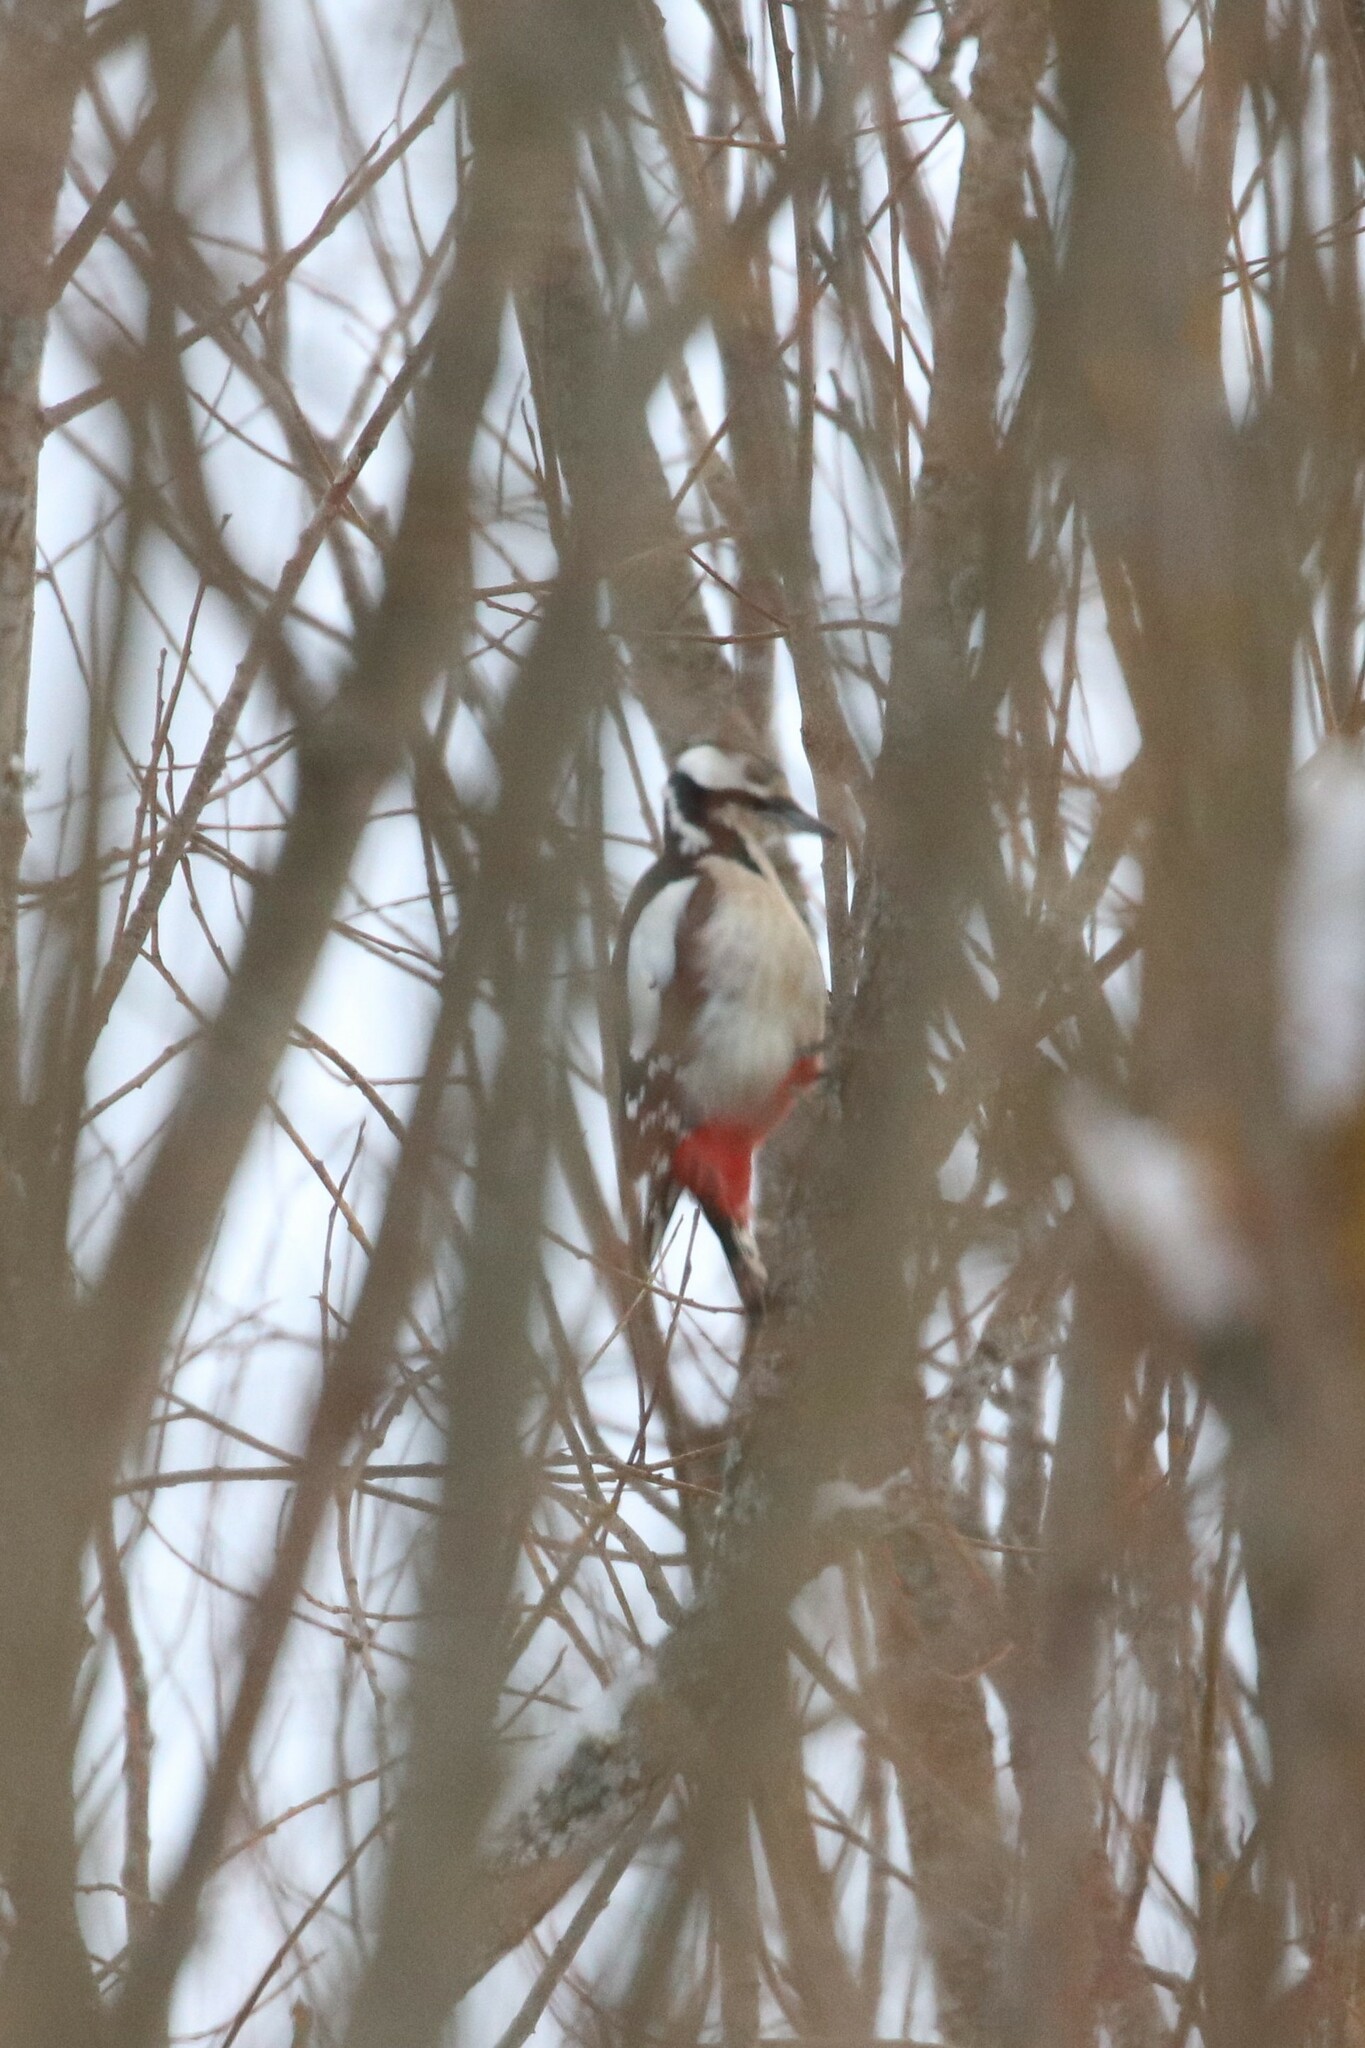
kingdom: Animalia
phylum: Chordata
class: Aves
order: Piciformes
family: Picidae
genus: Dendrocopos
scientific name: Dendrocopos major
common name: Great spotted woodpecker
